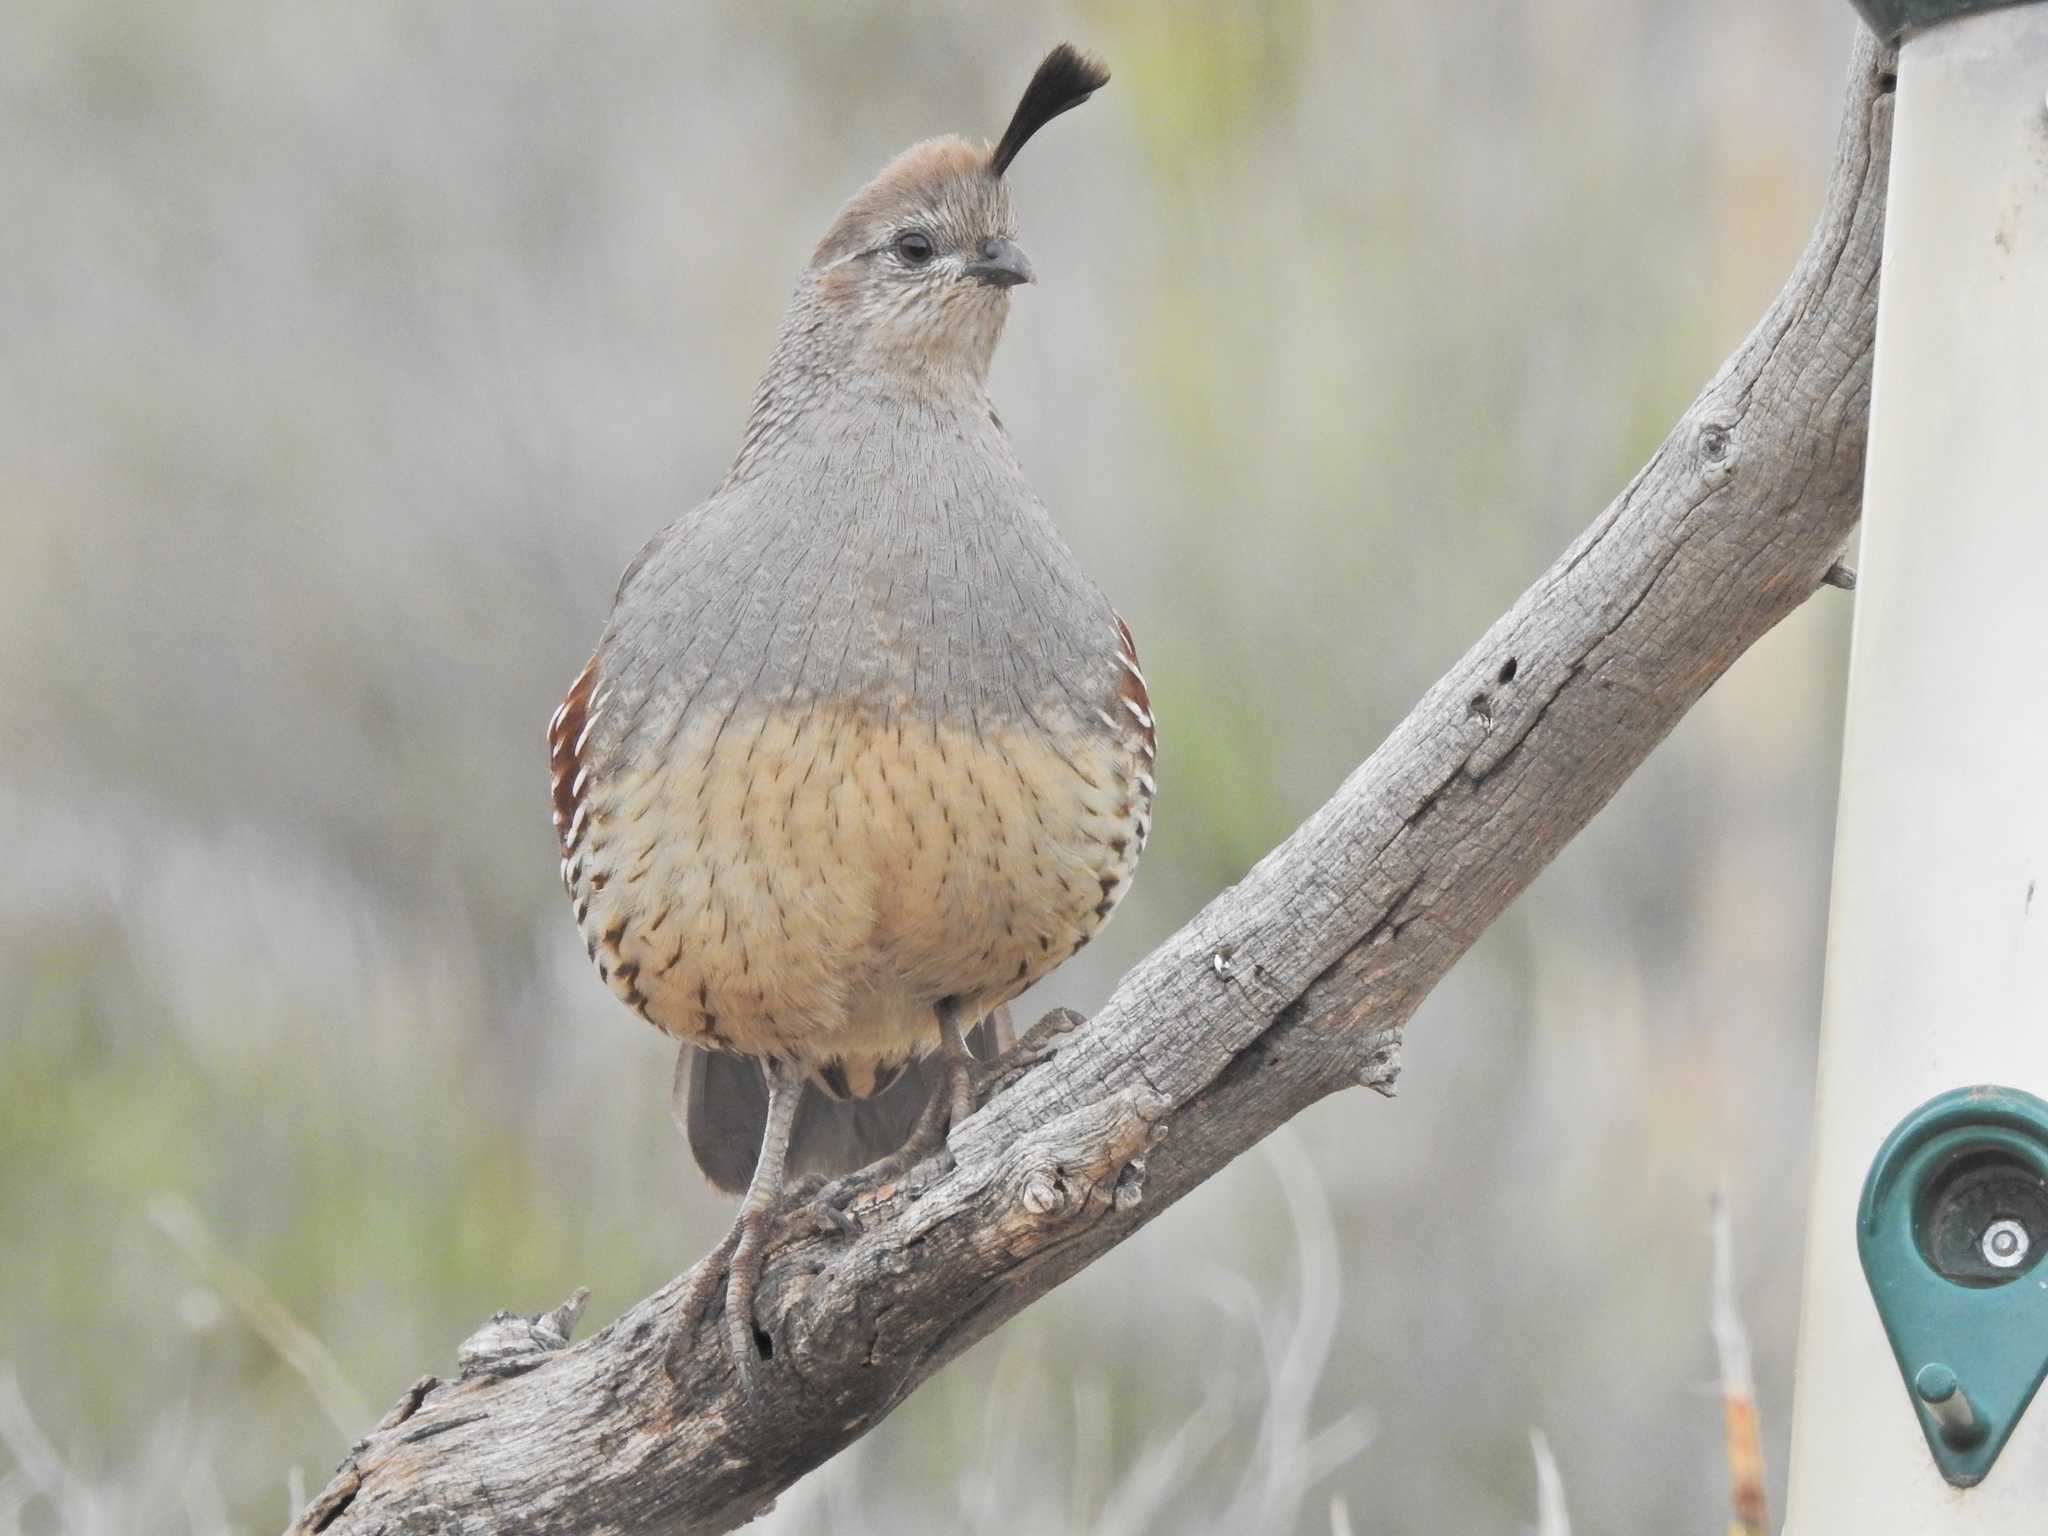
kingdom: Animalia
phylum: Chordata
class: Aves
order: Galliformes
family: Odontophoridae
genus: Callipepla
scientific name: Callipepla gambelii
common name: Gambel's quail
